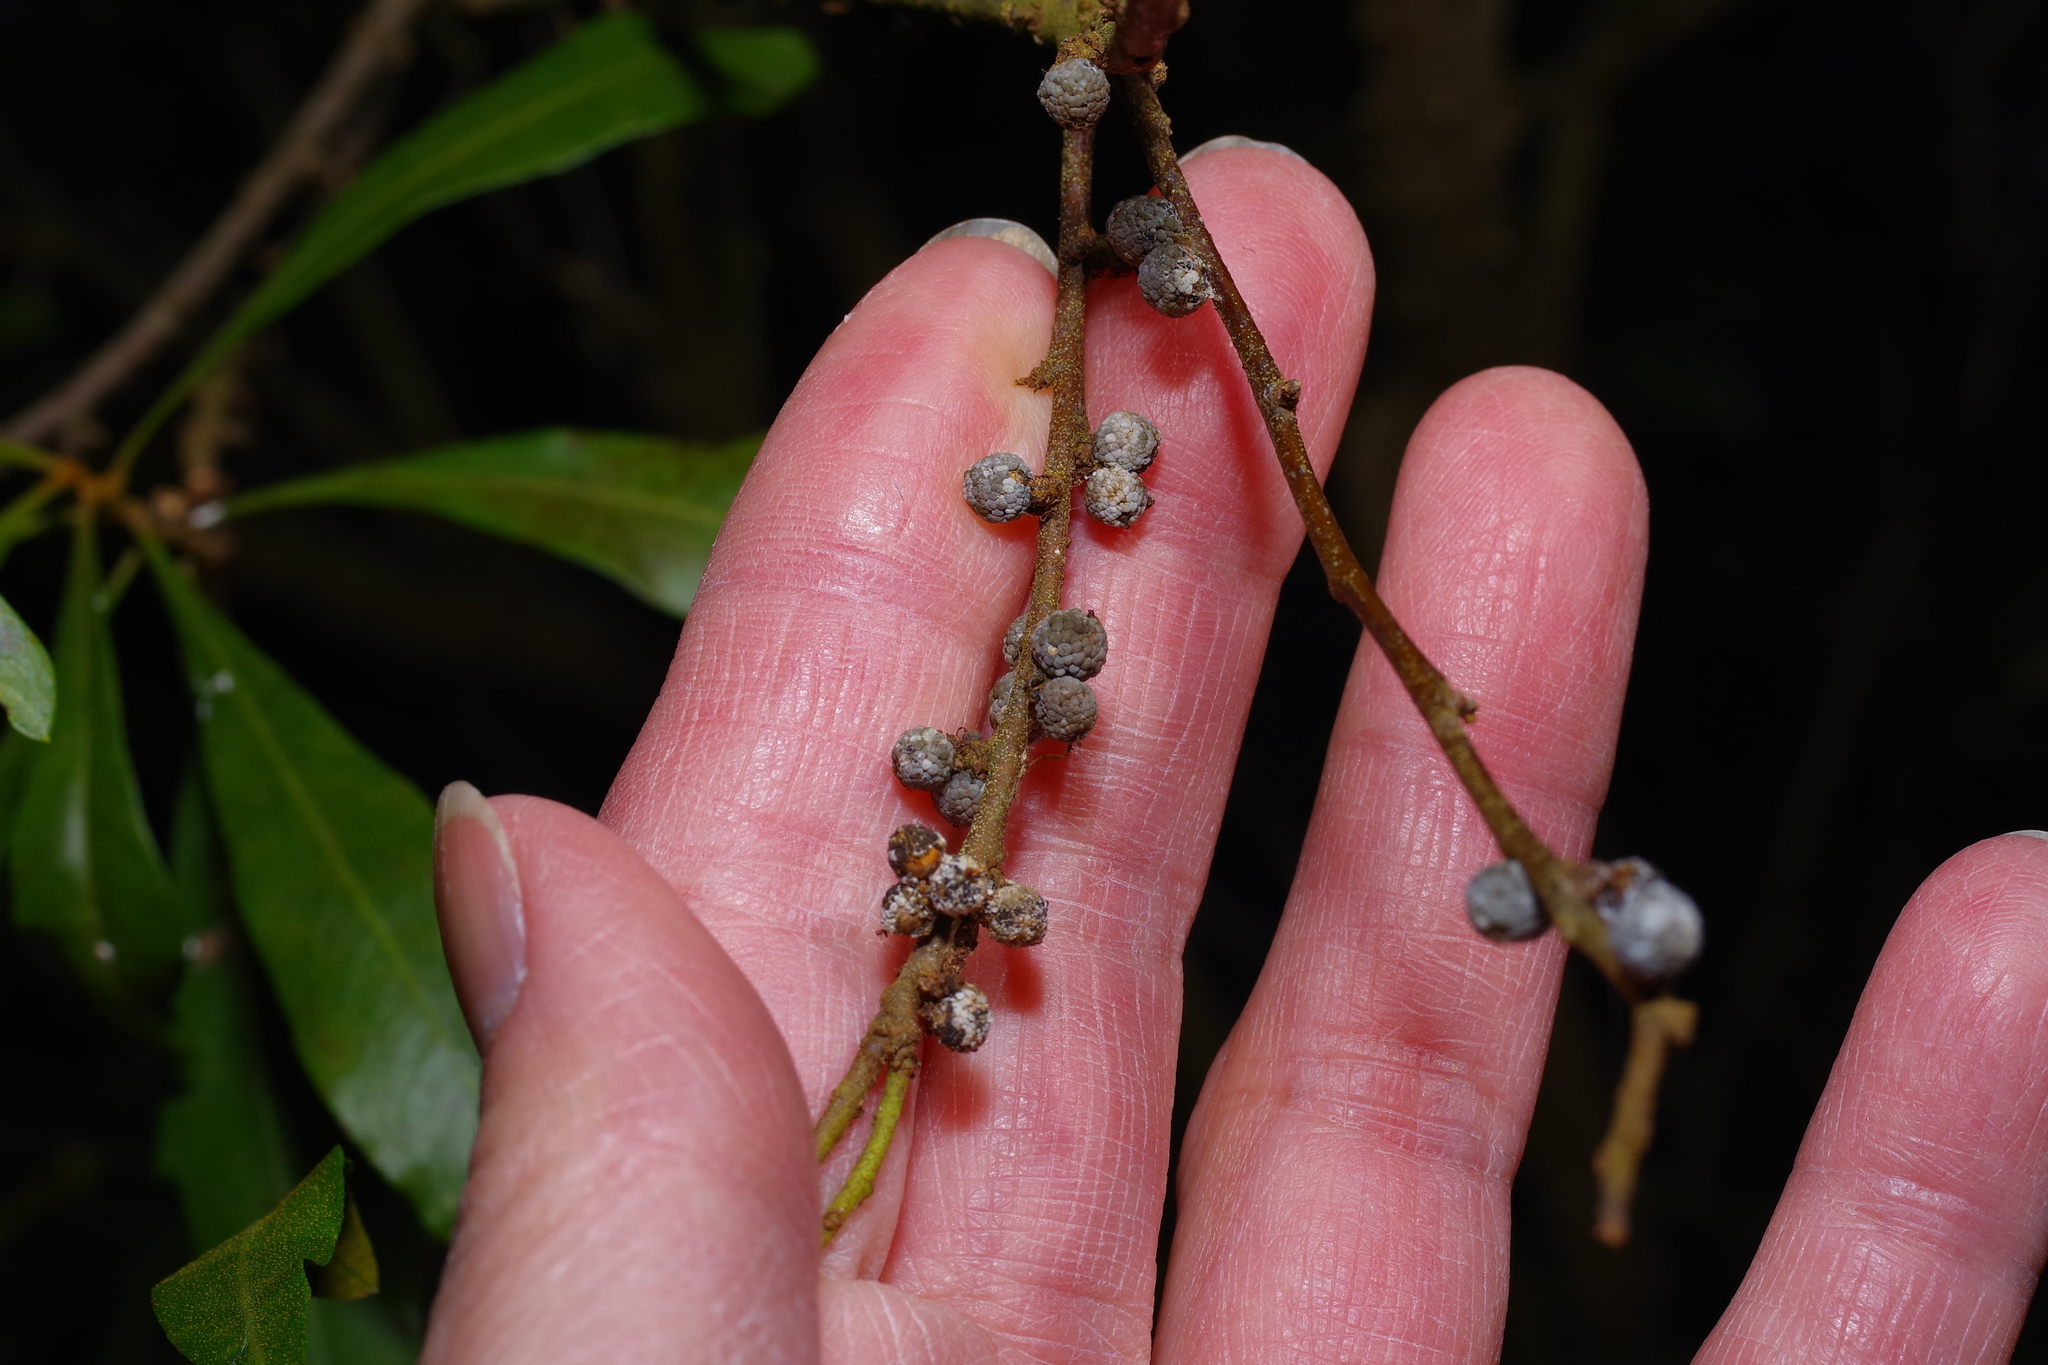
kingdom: Plantae
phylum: Tracheophyta
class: Magnoliopsida
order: Fagales
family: Myricaceae
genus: Morella
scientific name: Morella cerifera
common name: Wax myrtle
